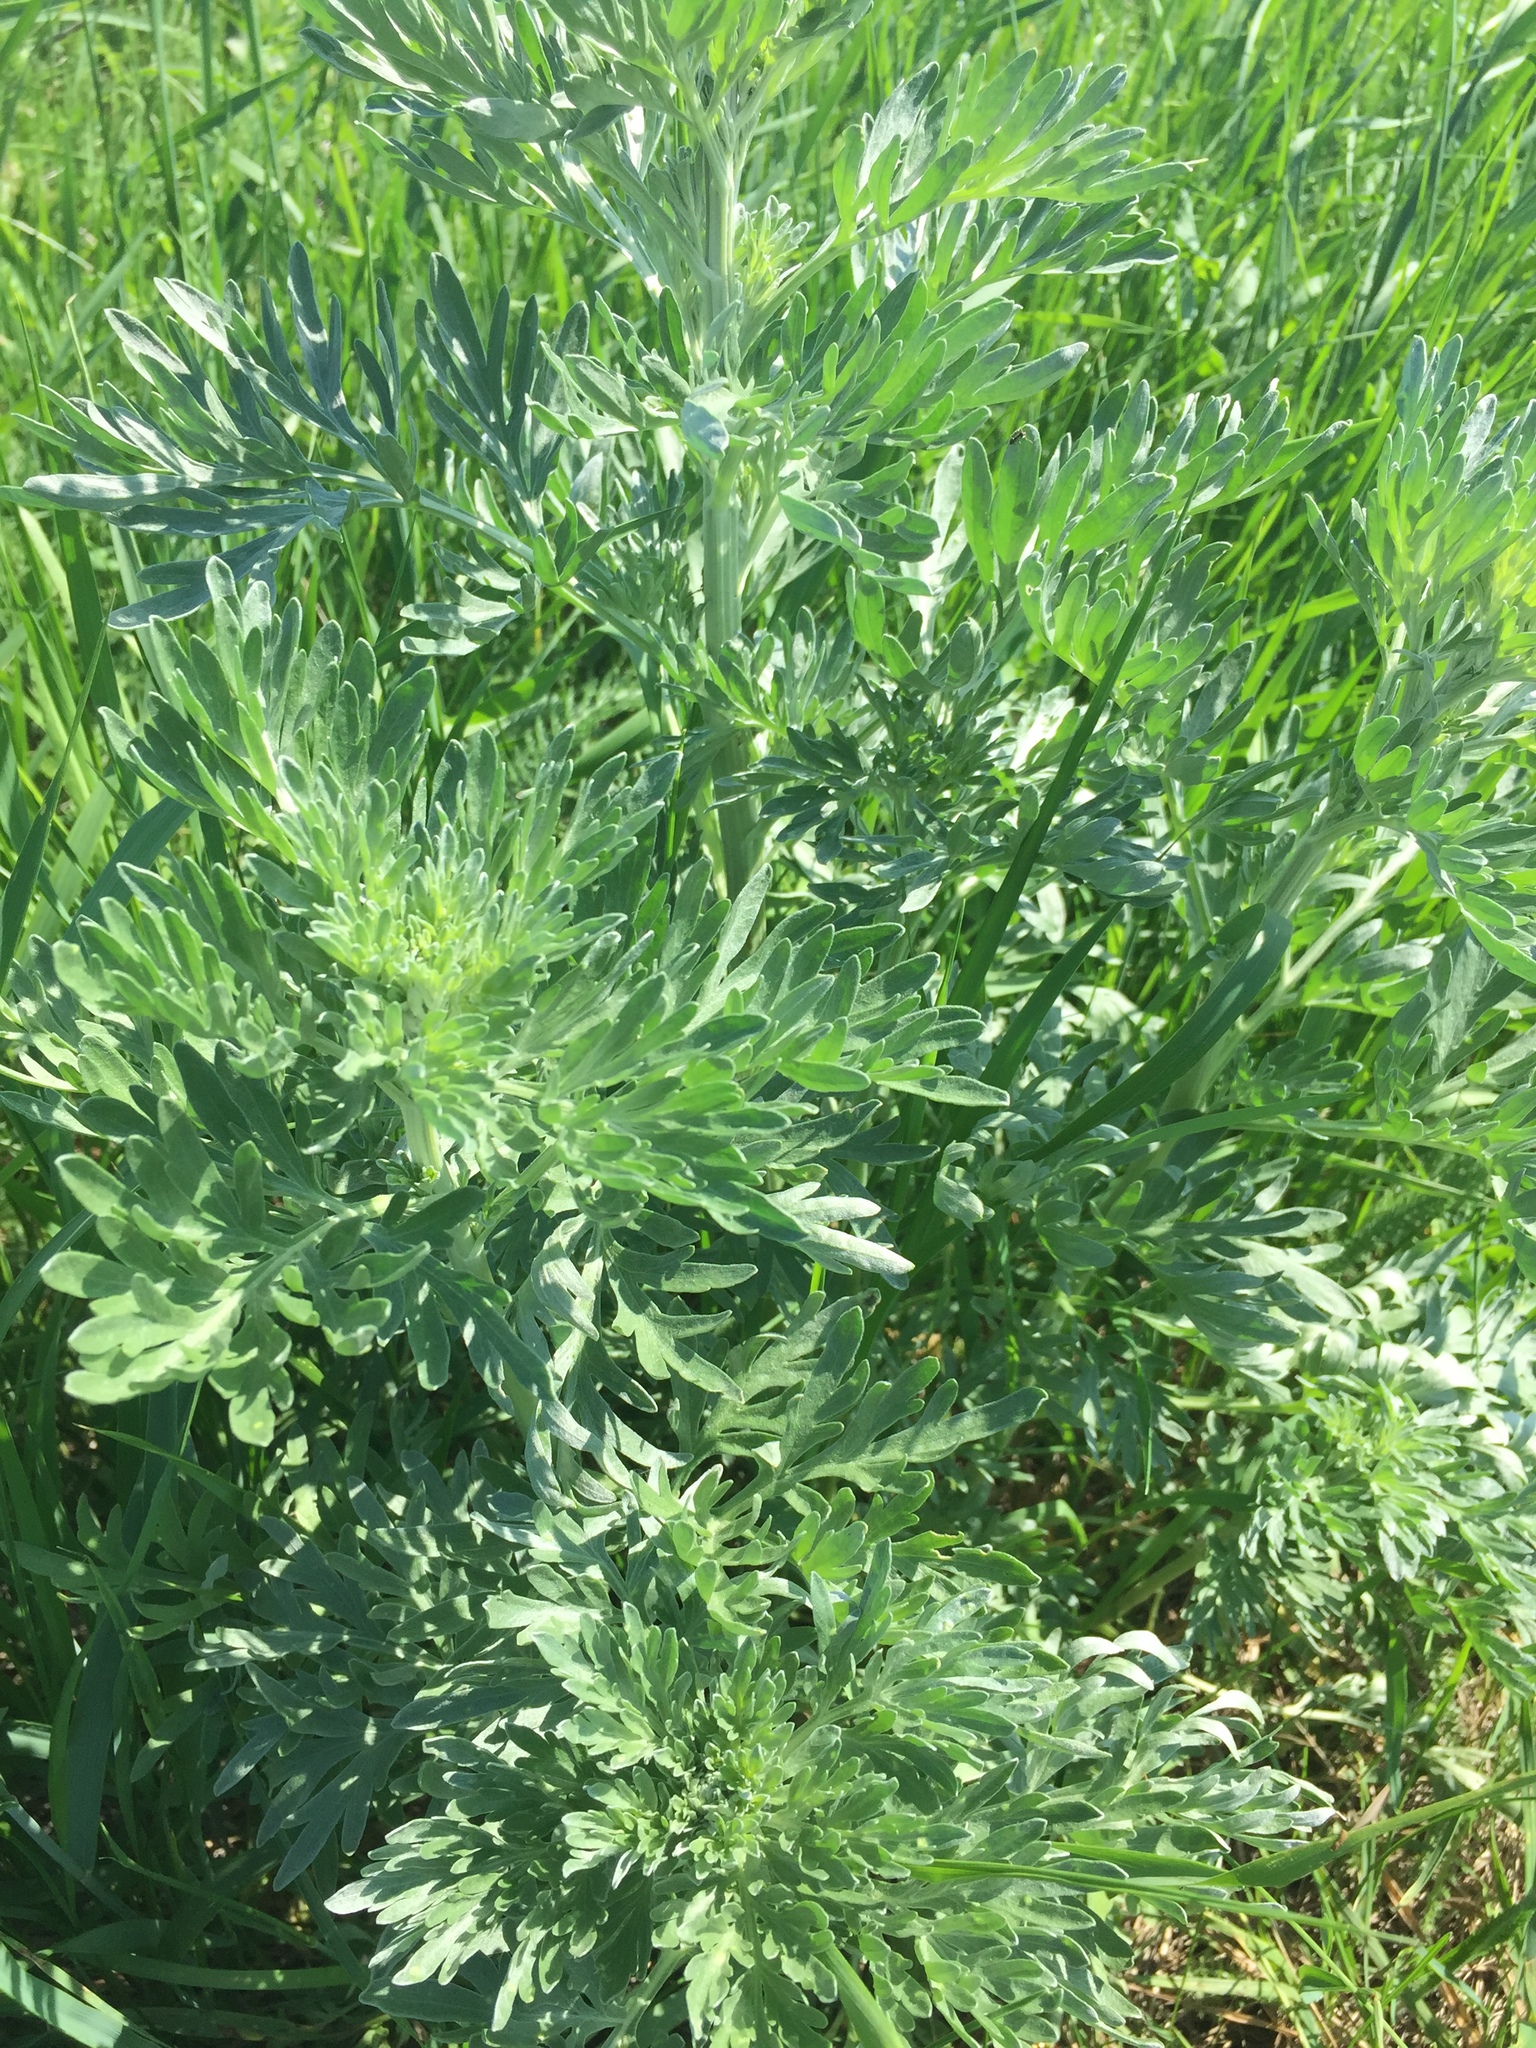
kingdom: Plantae
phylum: Tracheophyta
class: Magnoliopsida
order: Asterales
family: Asteraceae
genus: Artemisia
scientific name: Artemisia absinthium
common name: Wormwood
